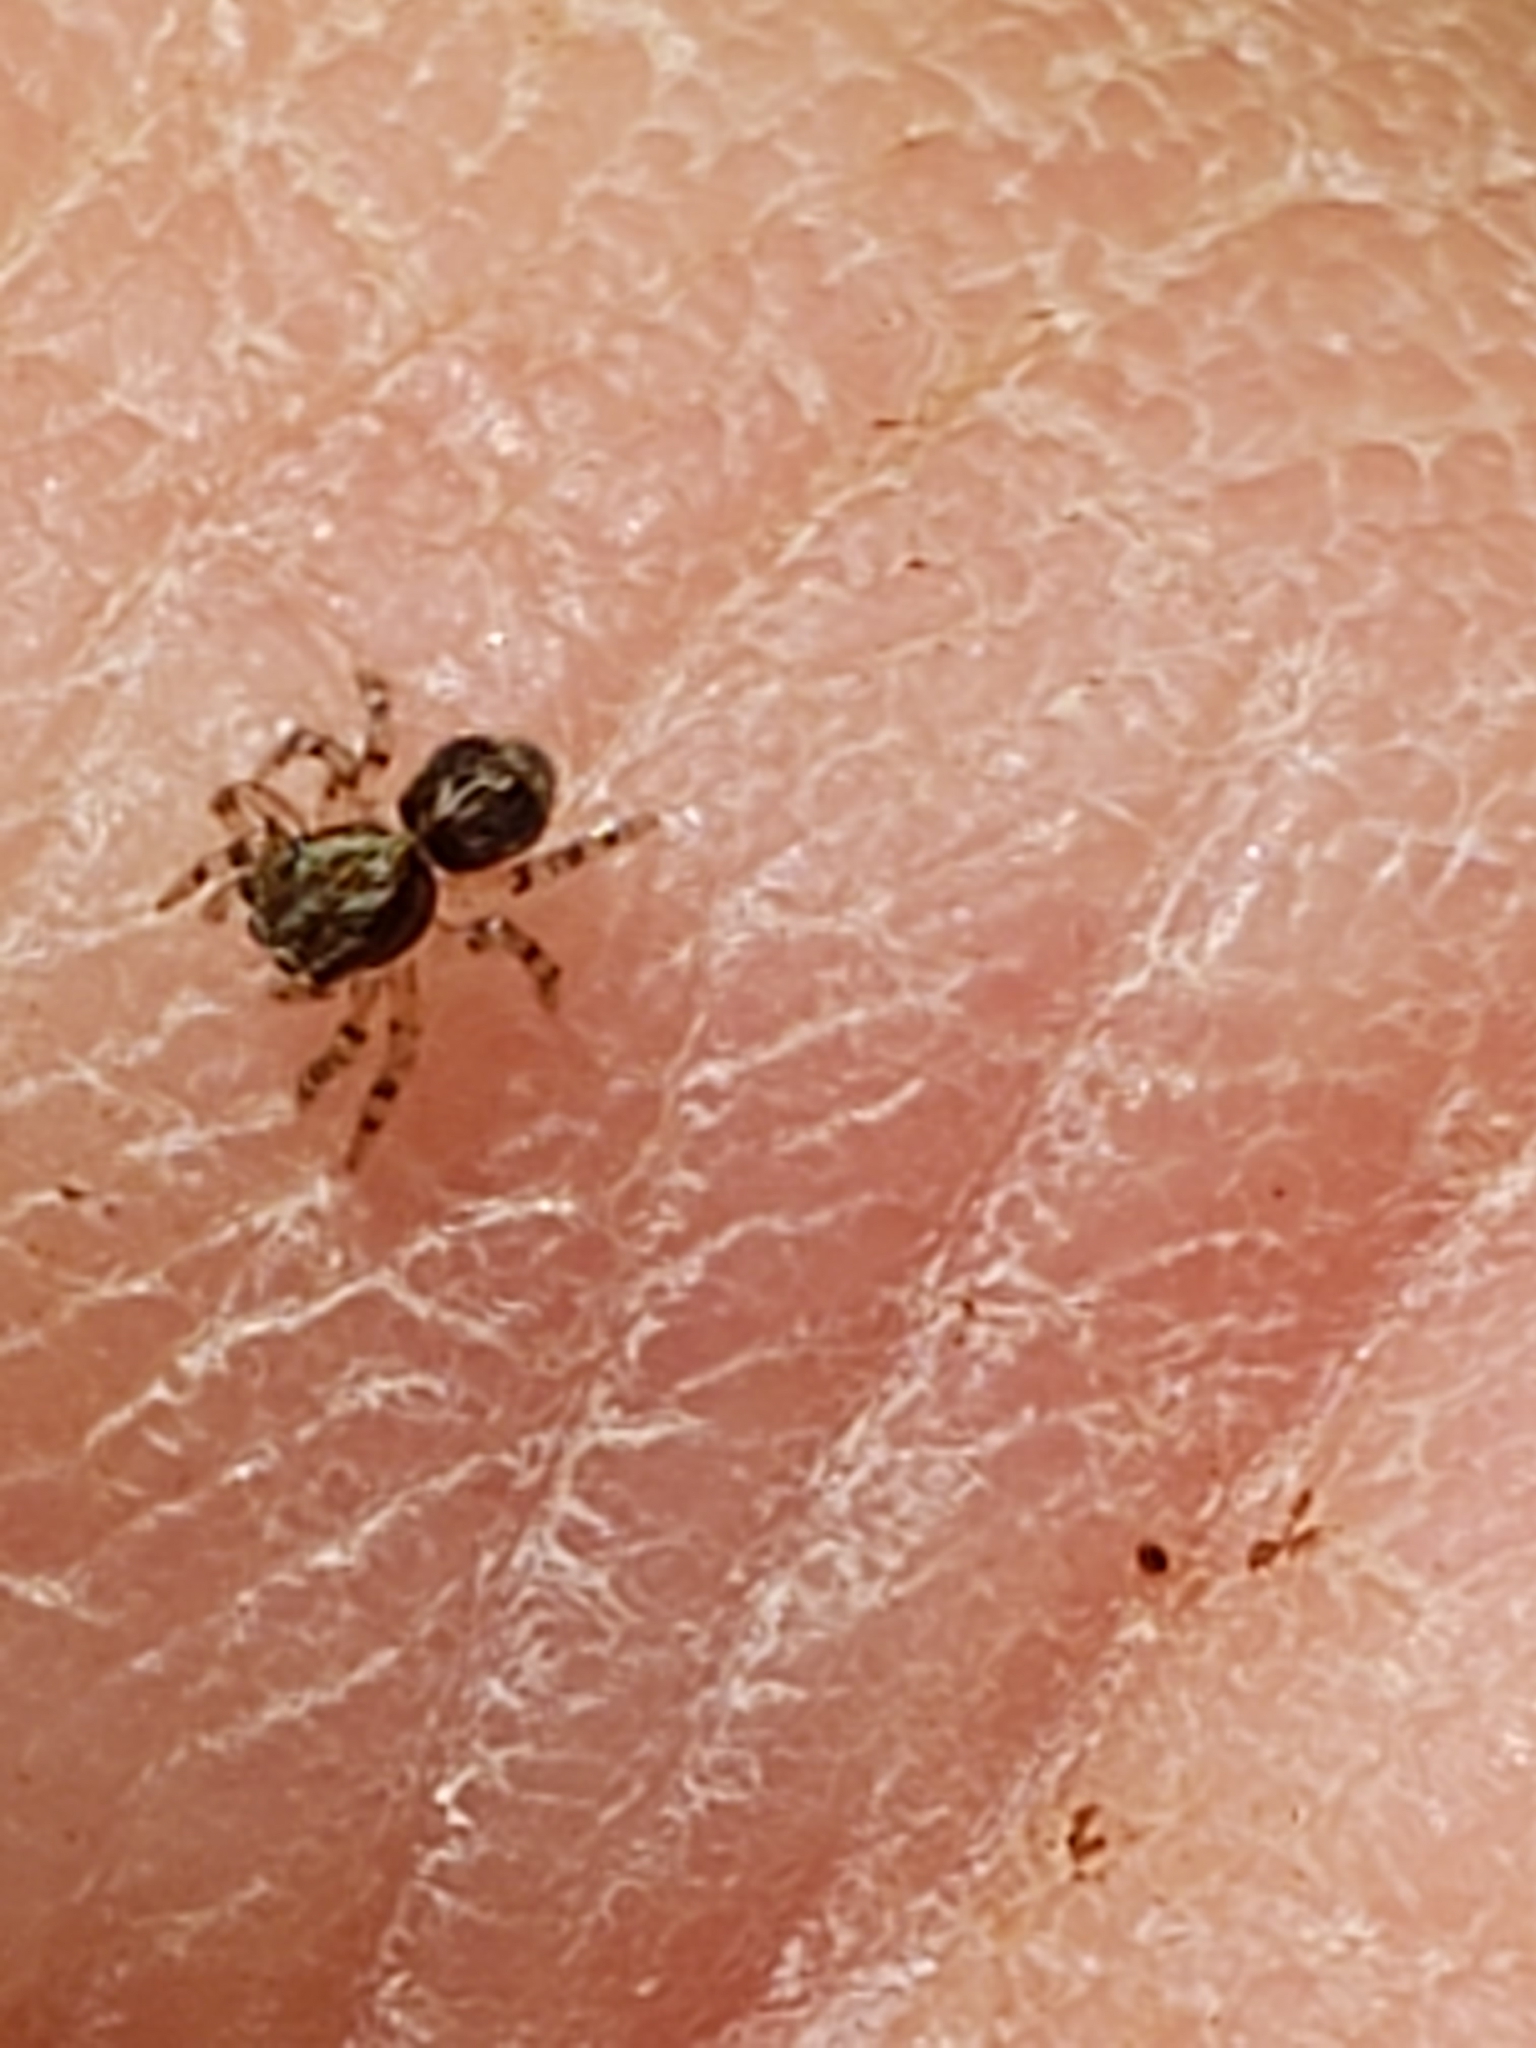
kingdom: Animalia
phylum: Arthropoda
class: Arachnida
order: Araneae
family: Salticidae
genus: Naphrys
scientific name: Naphrys pulex
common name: Flea jumping spider
